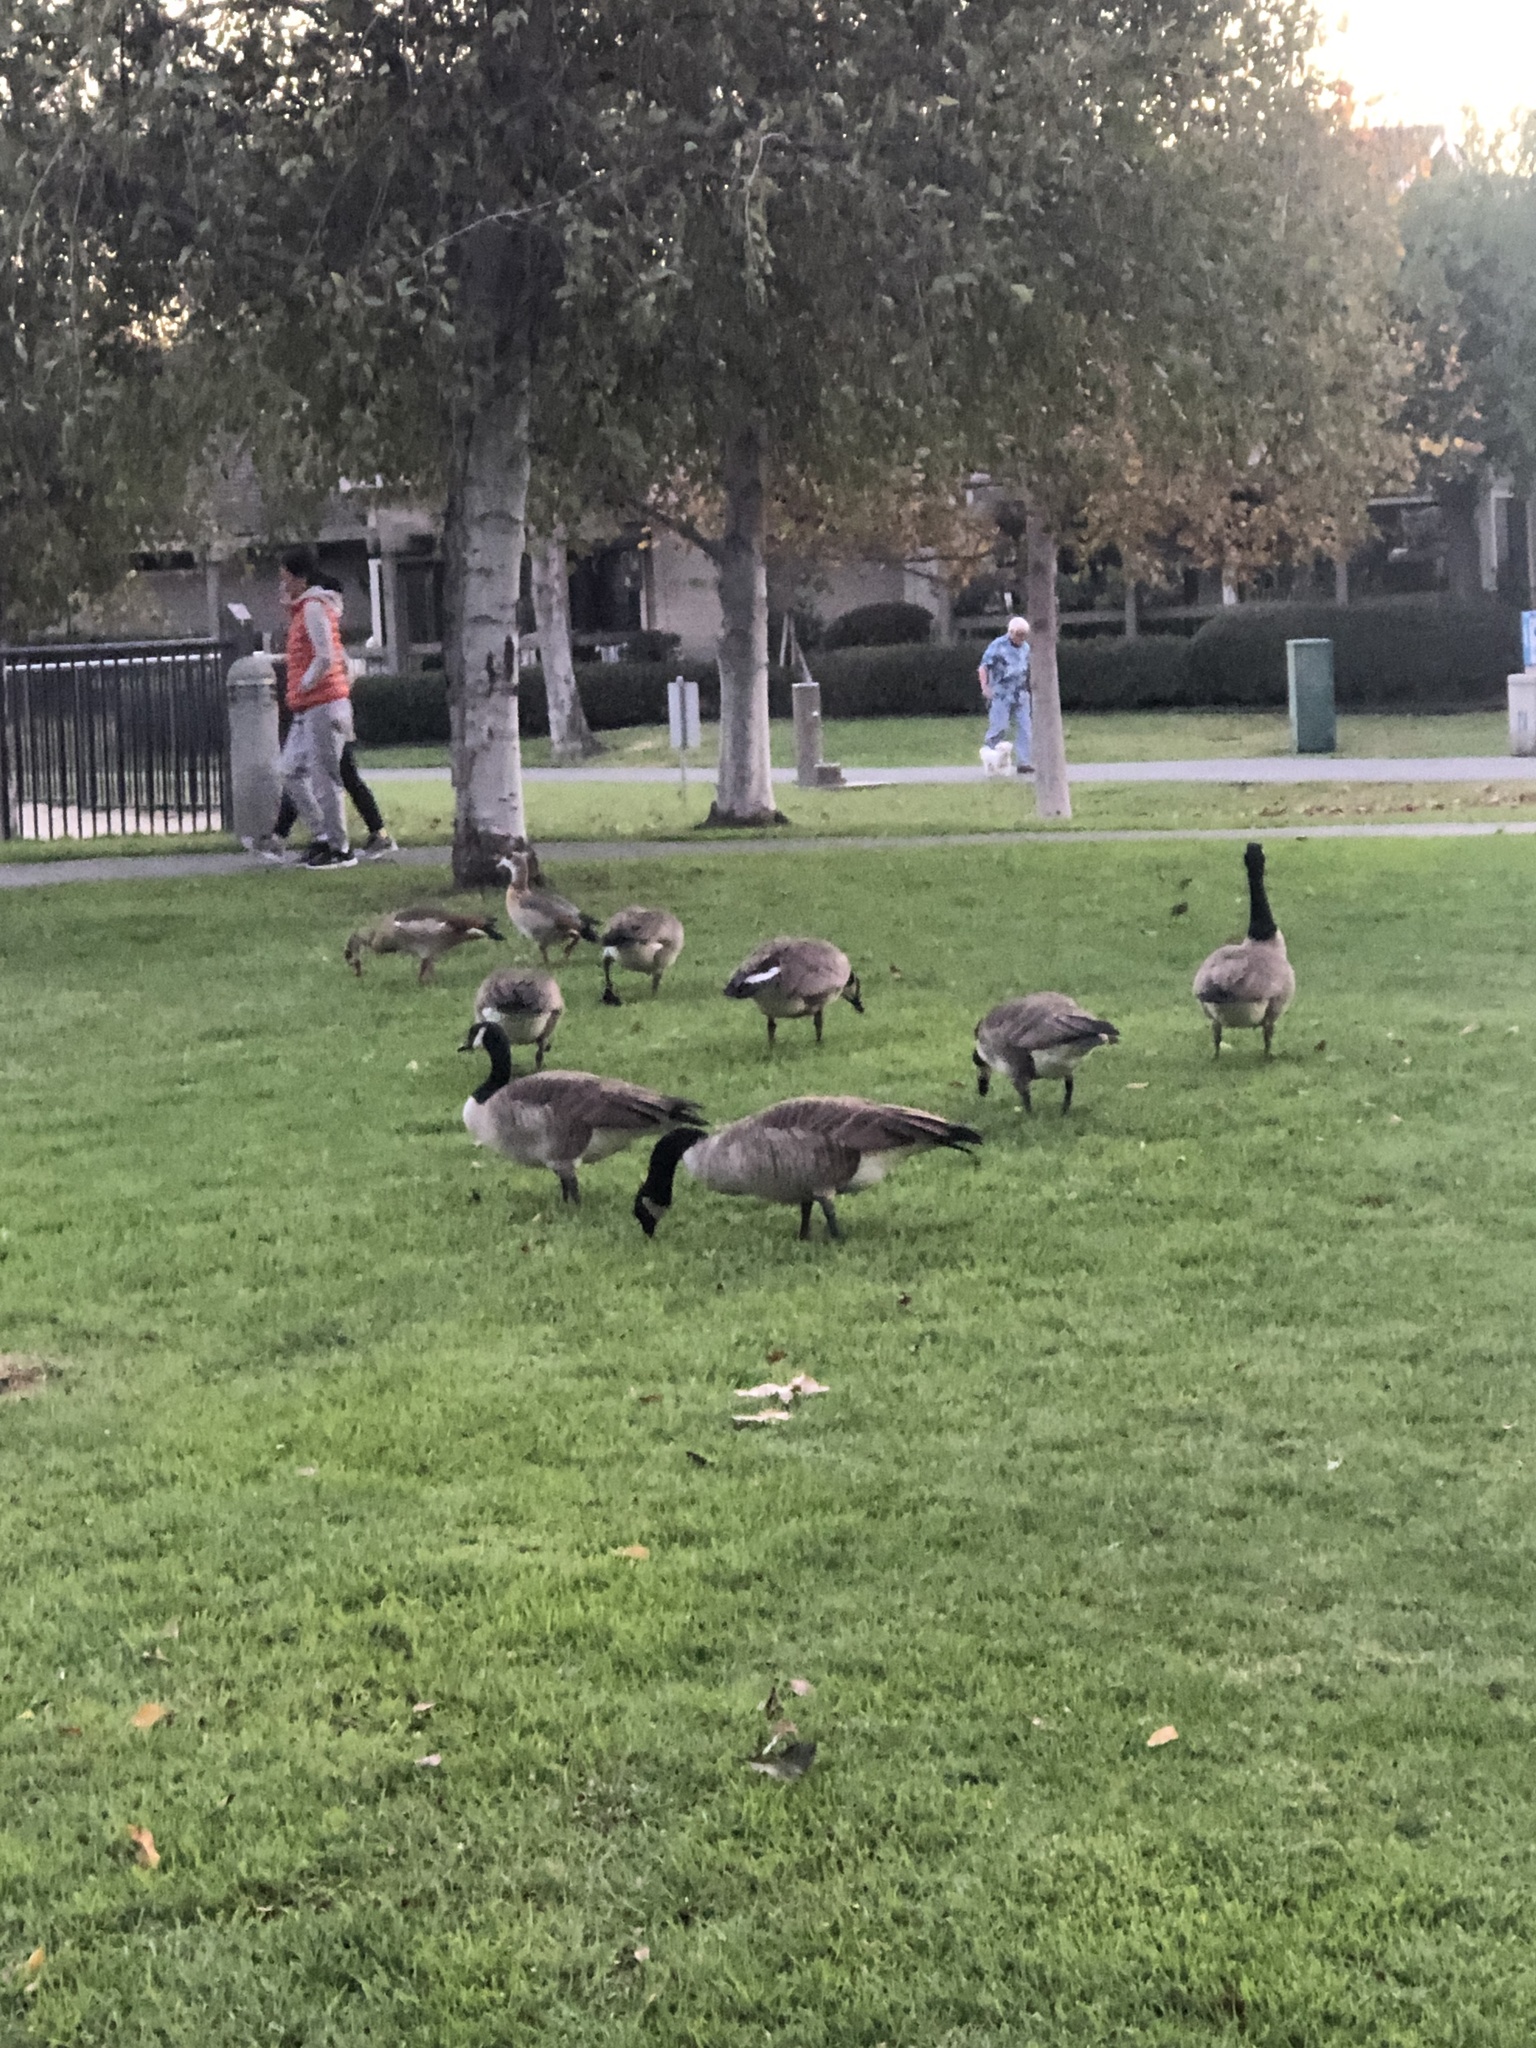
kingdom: Animalia
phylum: Chordata
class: Aves
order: Anseriformes
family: Anatidae
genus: Branta
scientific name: Branta canadensis
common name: Canada goose
